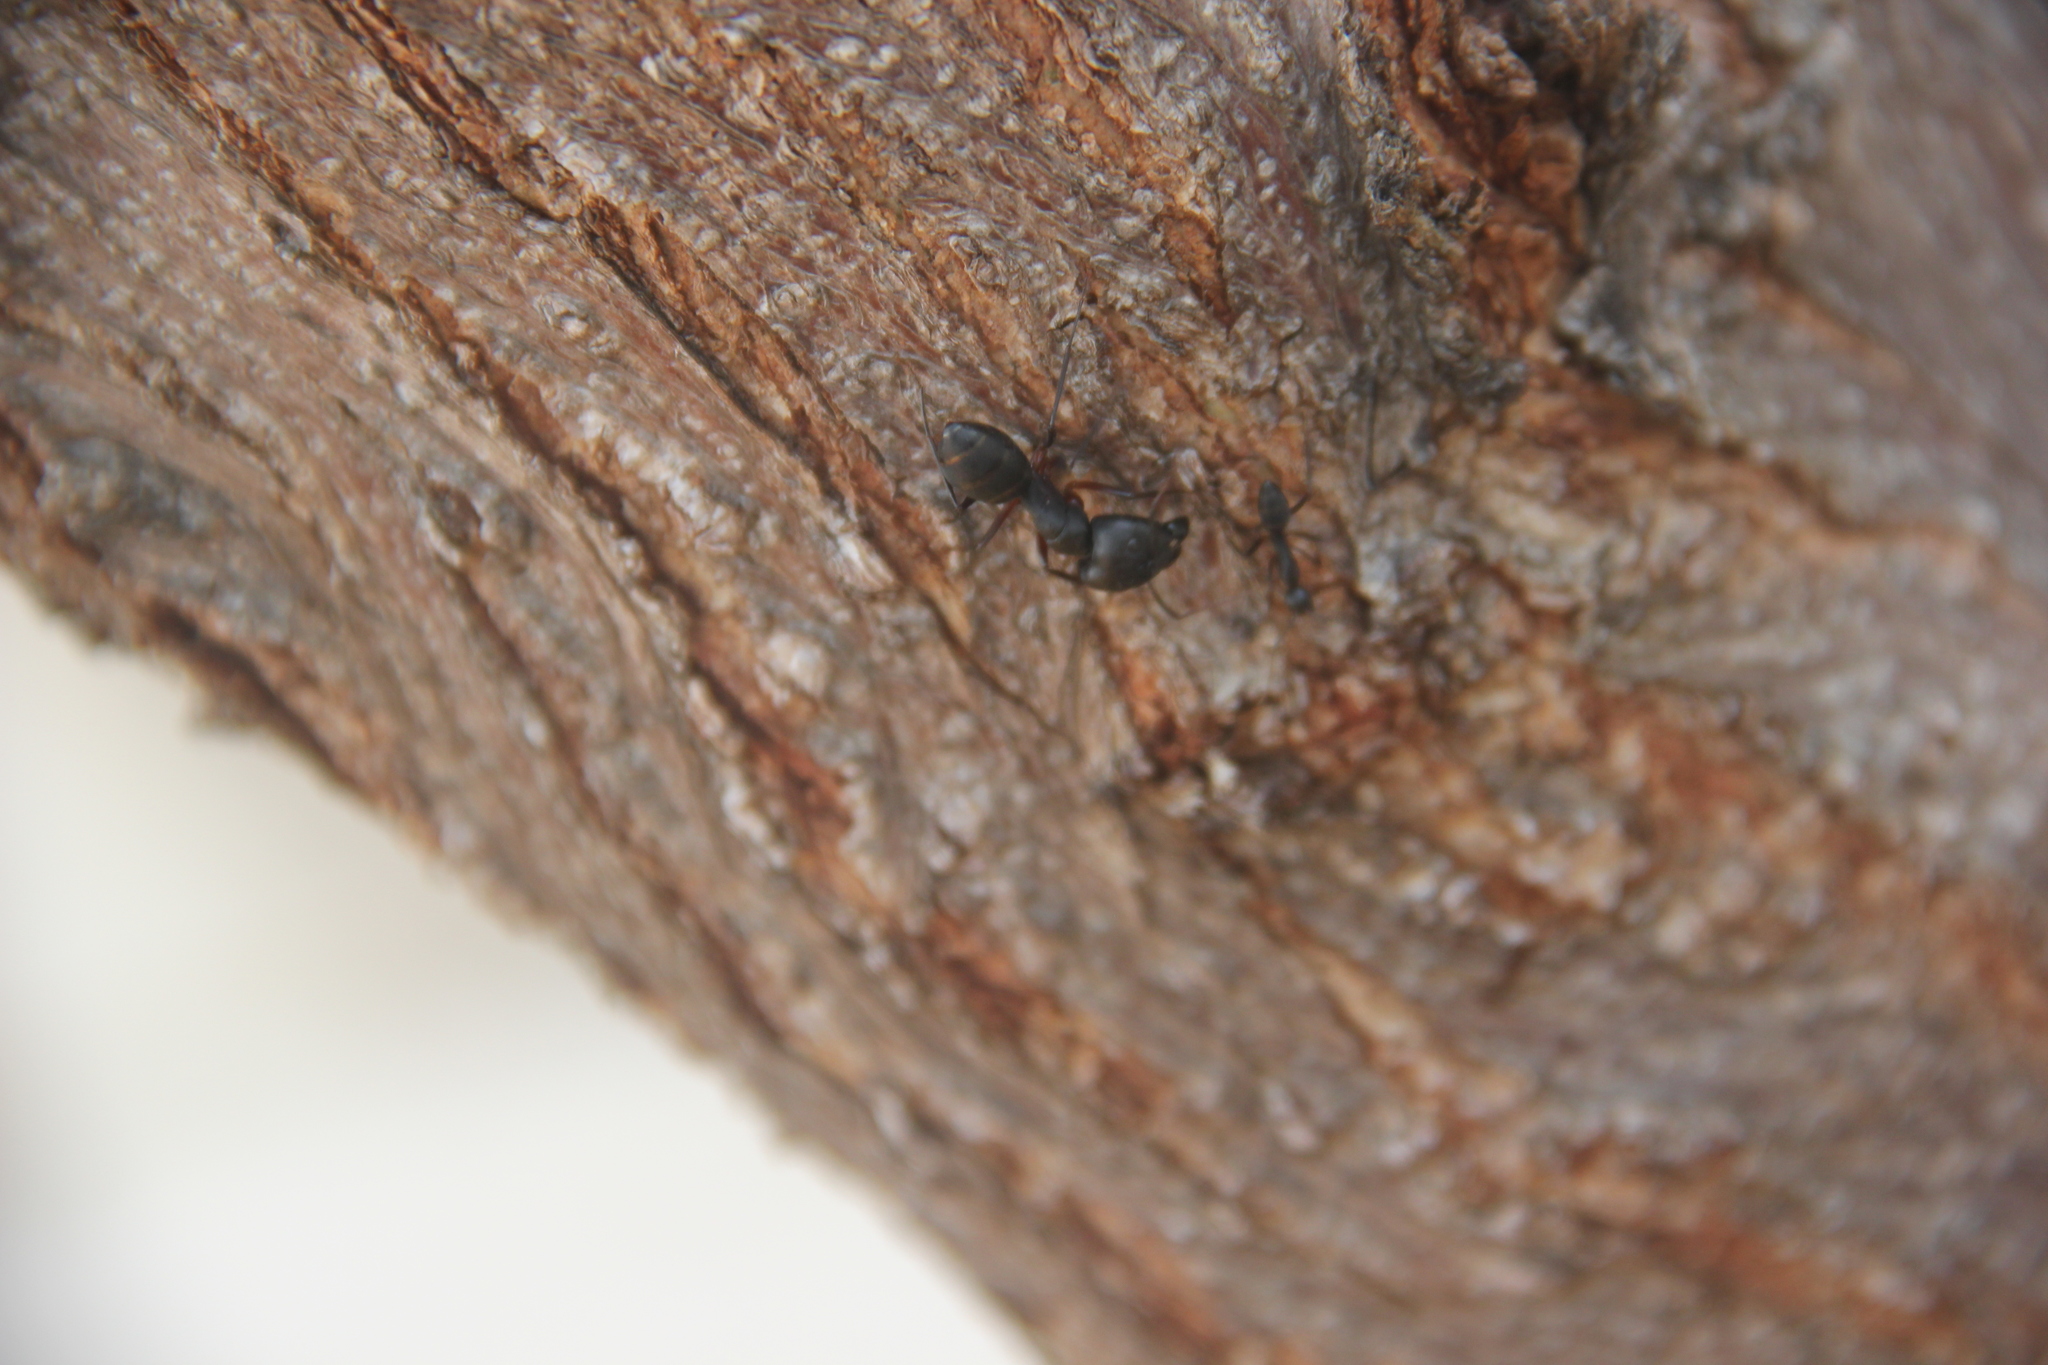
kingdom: Animalia
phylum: Arthropoda
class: Insecta
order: Hymenoptera
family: Formicidae
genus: Camponotus
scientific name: Camponotus compressus
